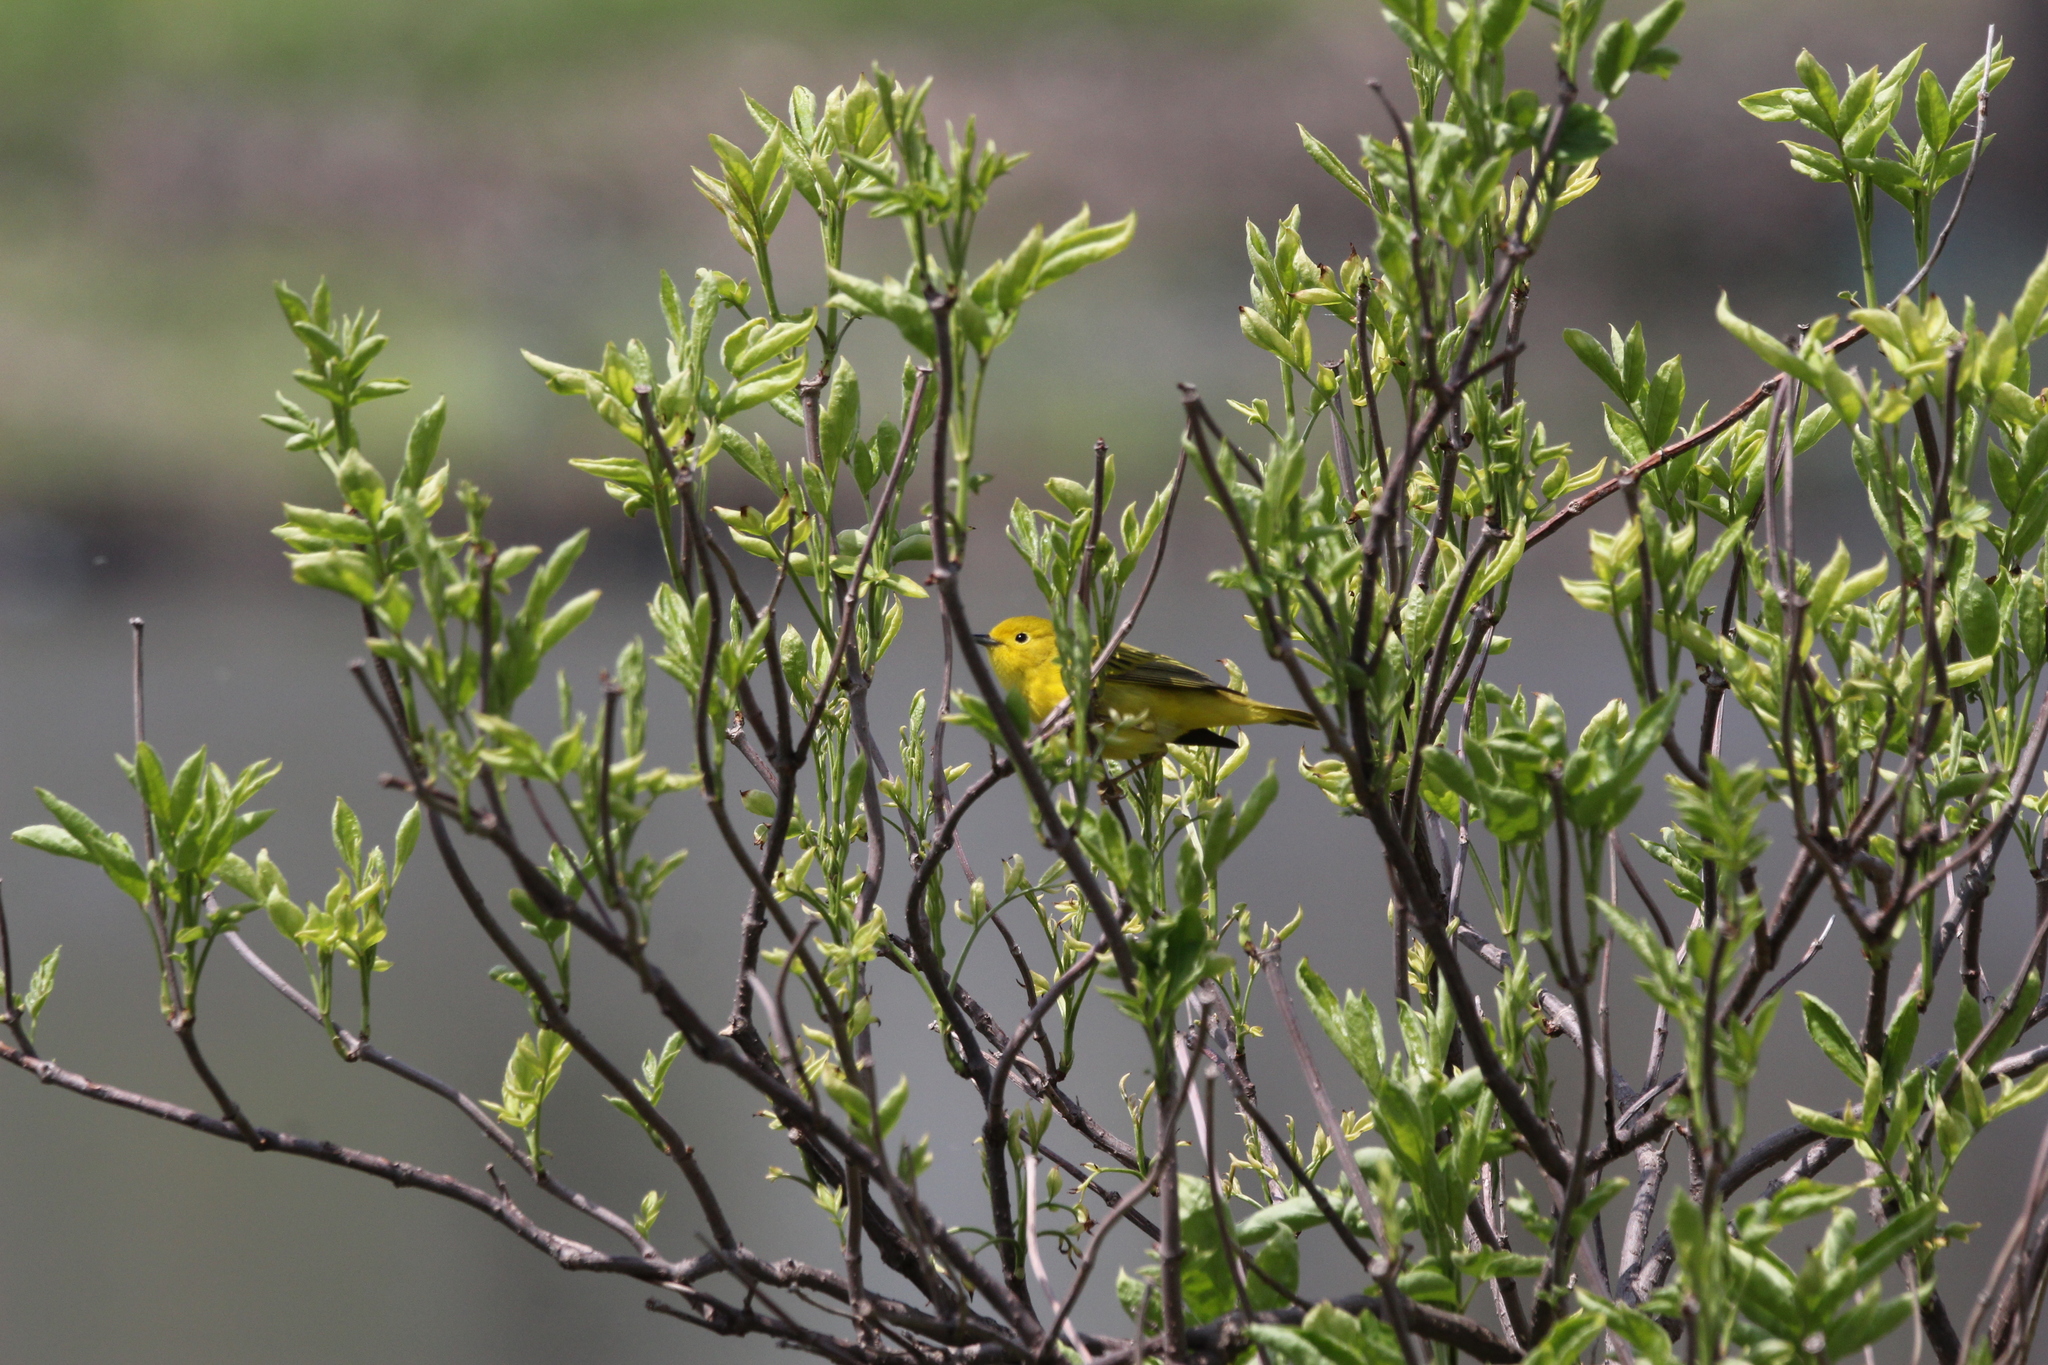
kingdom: Animalia
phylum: Chordata
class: Aves
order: Passeriformes
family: Parulidae
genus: Setophaga
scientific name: Setophaga petechia
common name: Yellow warbler
